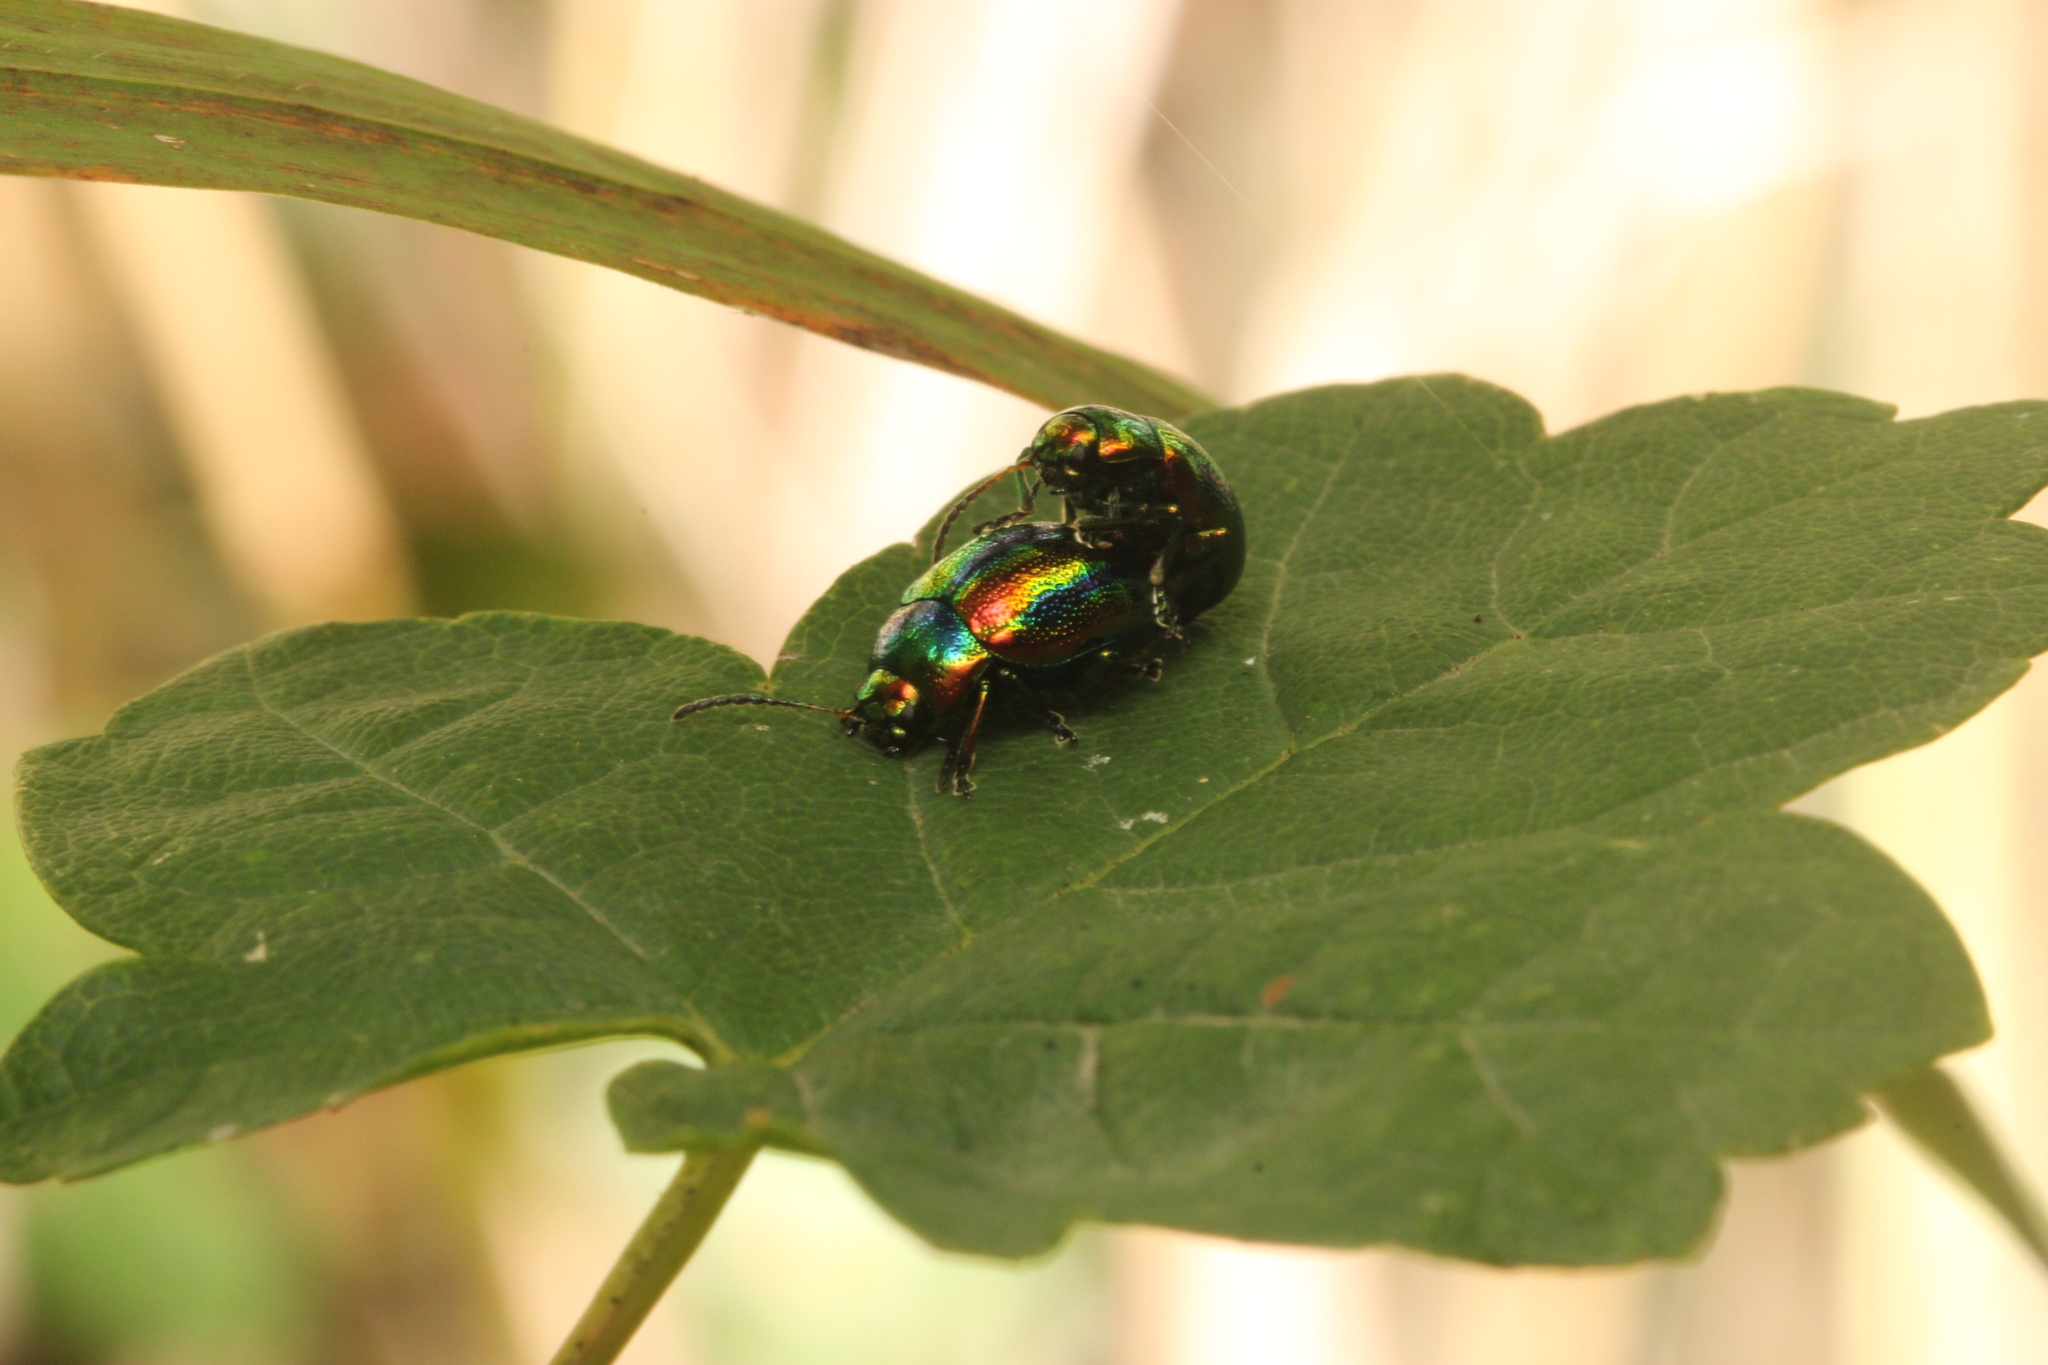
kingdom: Animalia
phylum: Arthropoda
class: Insecta
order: Coleoptera
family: Chrysomelidae
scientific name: Chrysomelidae
